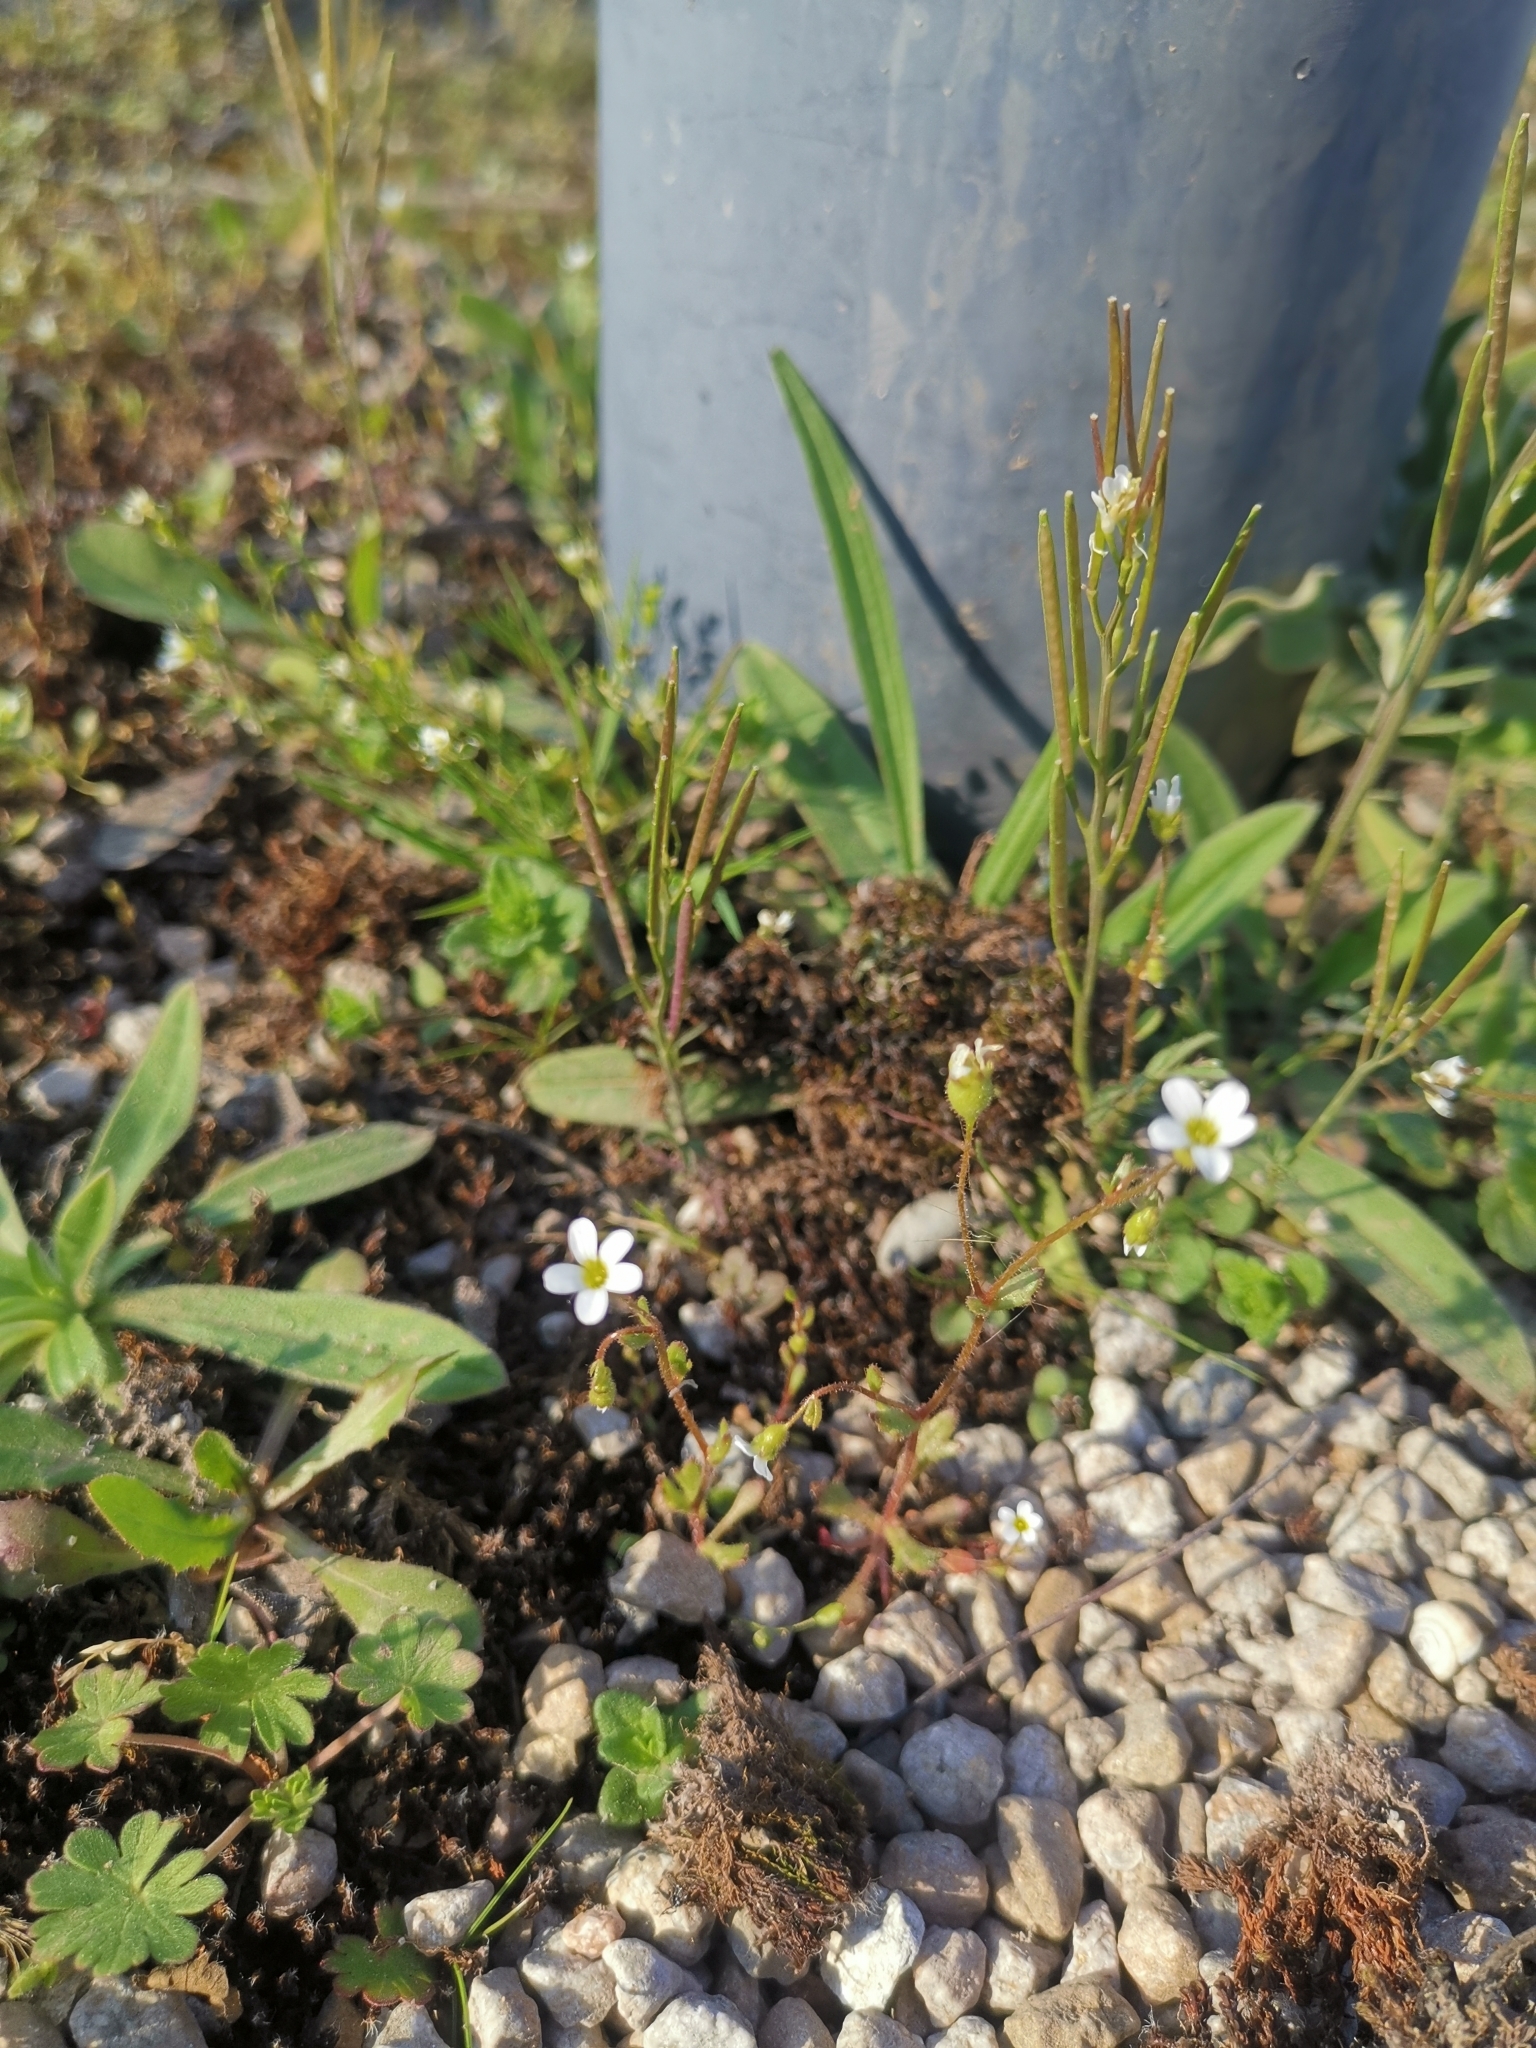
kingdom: Plantae
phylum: Tracheophyta
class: Magnoliopsida
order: Saxifragales
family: Saxifragaceae
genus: Saxifraga
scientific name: Saxifraga tridactylites
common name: Rue-leaved saxifrage
